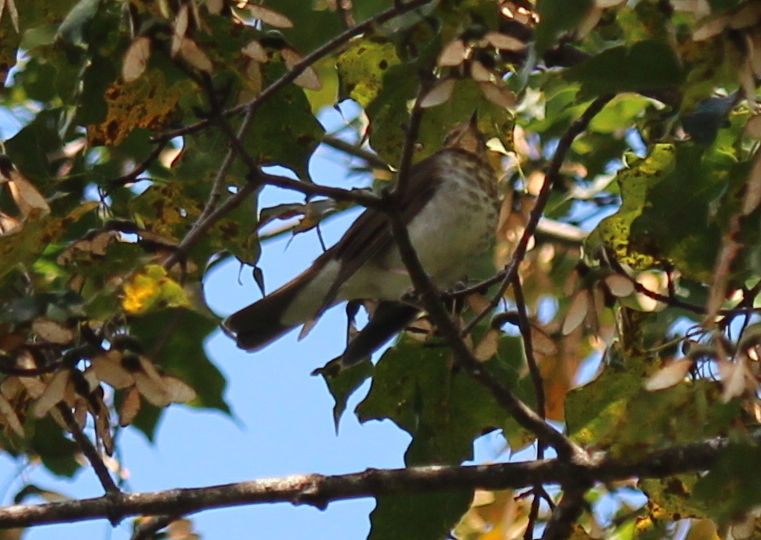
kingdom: Animalia
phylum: Chordata
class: Aves
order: Passeriformes
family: Turdidae
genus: Catharus
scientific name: Catharus ustulatus
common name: Swainson's thrush
